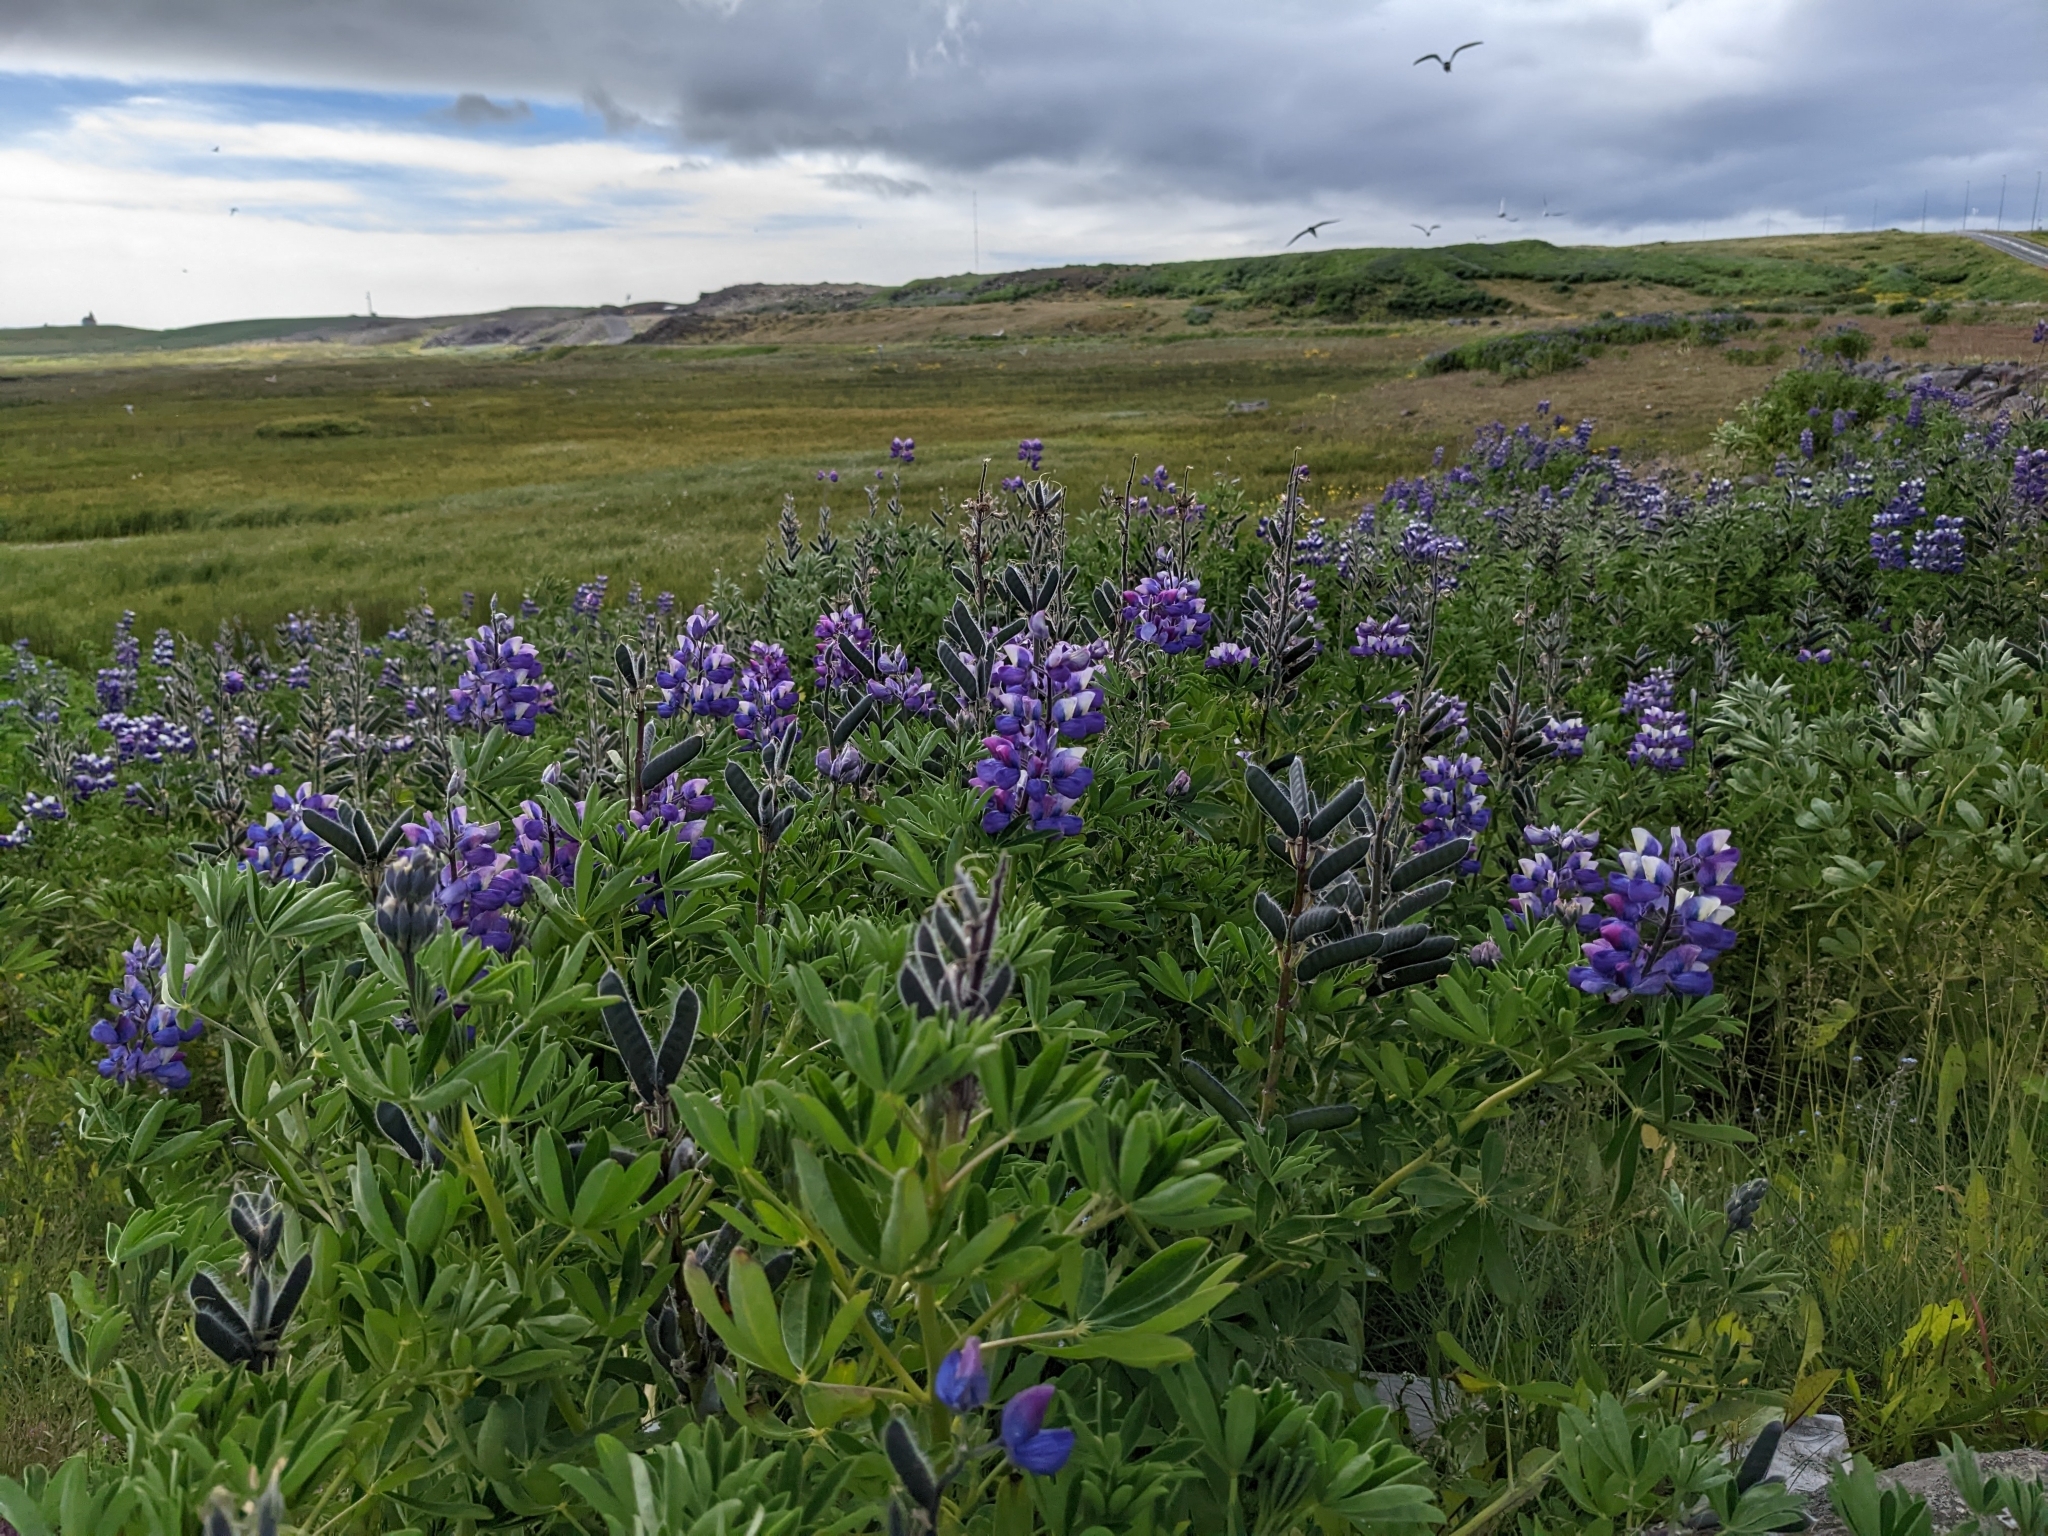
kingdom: Plantae
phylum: Tracheophyta
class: Magnoliopsida
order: Fabales
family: Fabaceae
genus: Lupinus
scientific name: Lupinus nootkatensis
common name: Nootka lupine
